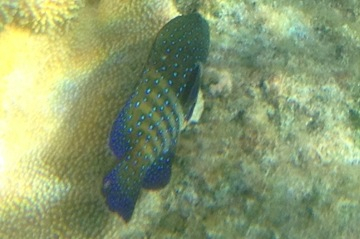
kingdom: Animalia
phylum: Chordata
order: Perciformes
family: Serranidae
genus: Cephalopholis
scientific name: Cephalopholis argus
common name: Peacock grouper
